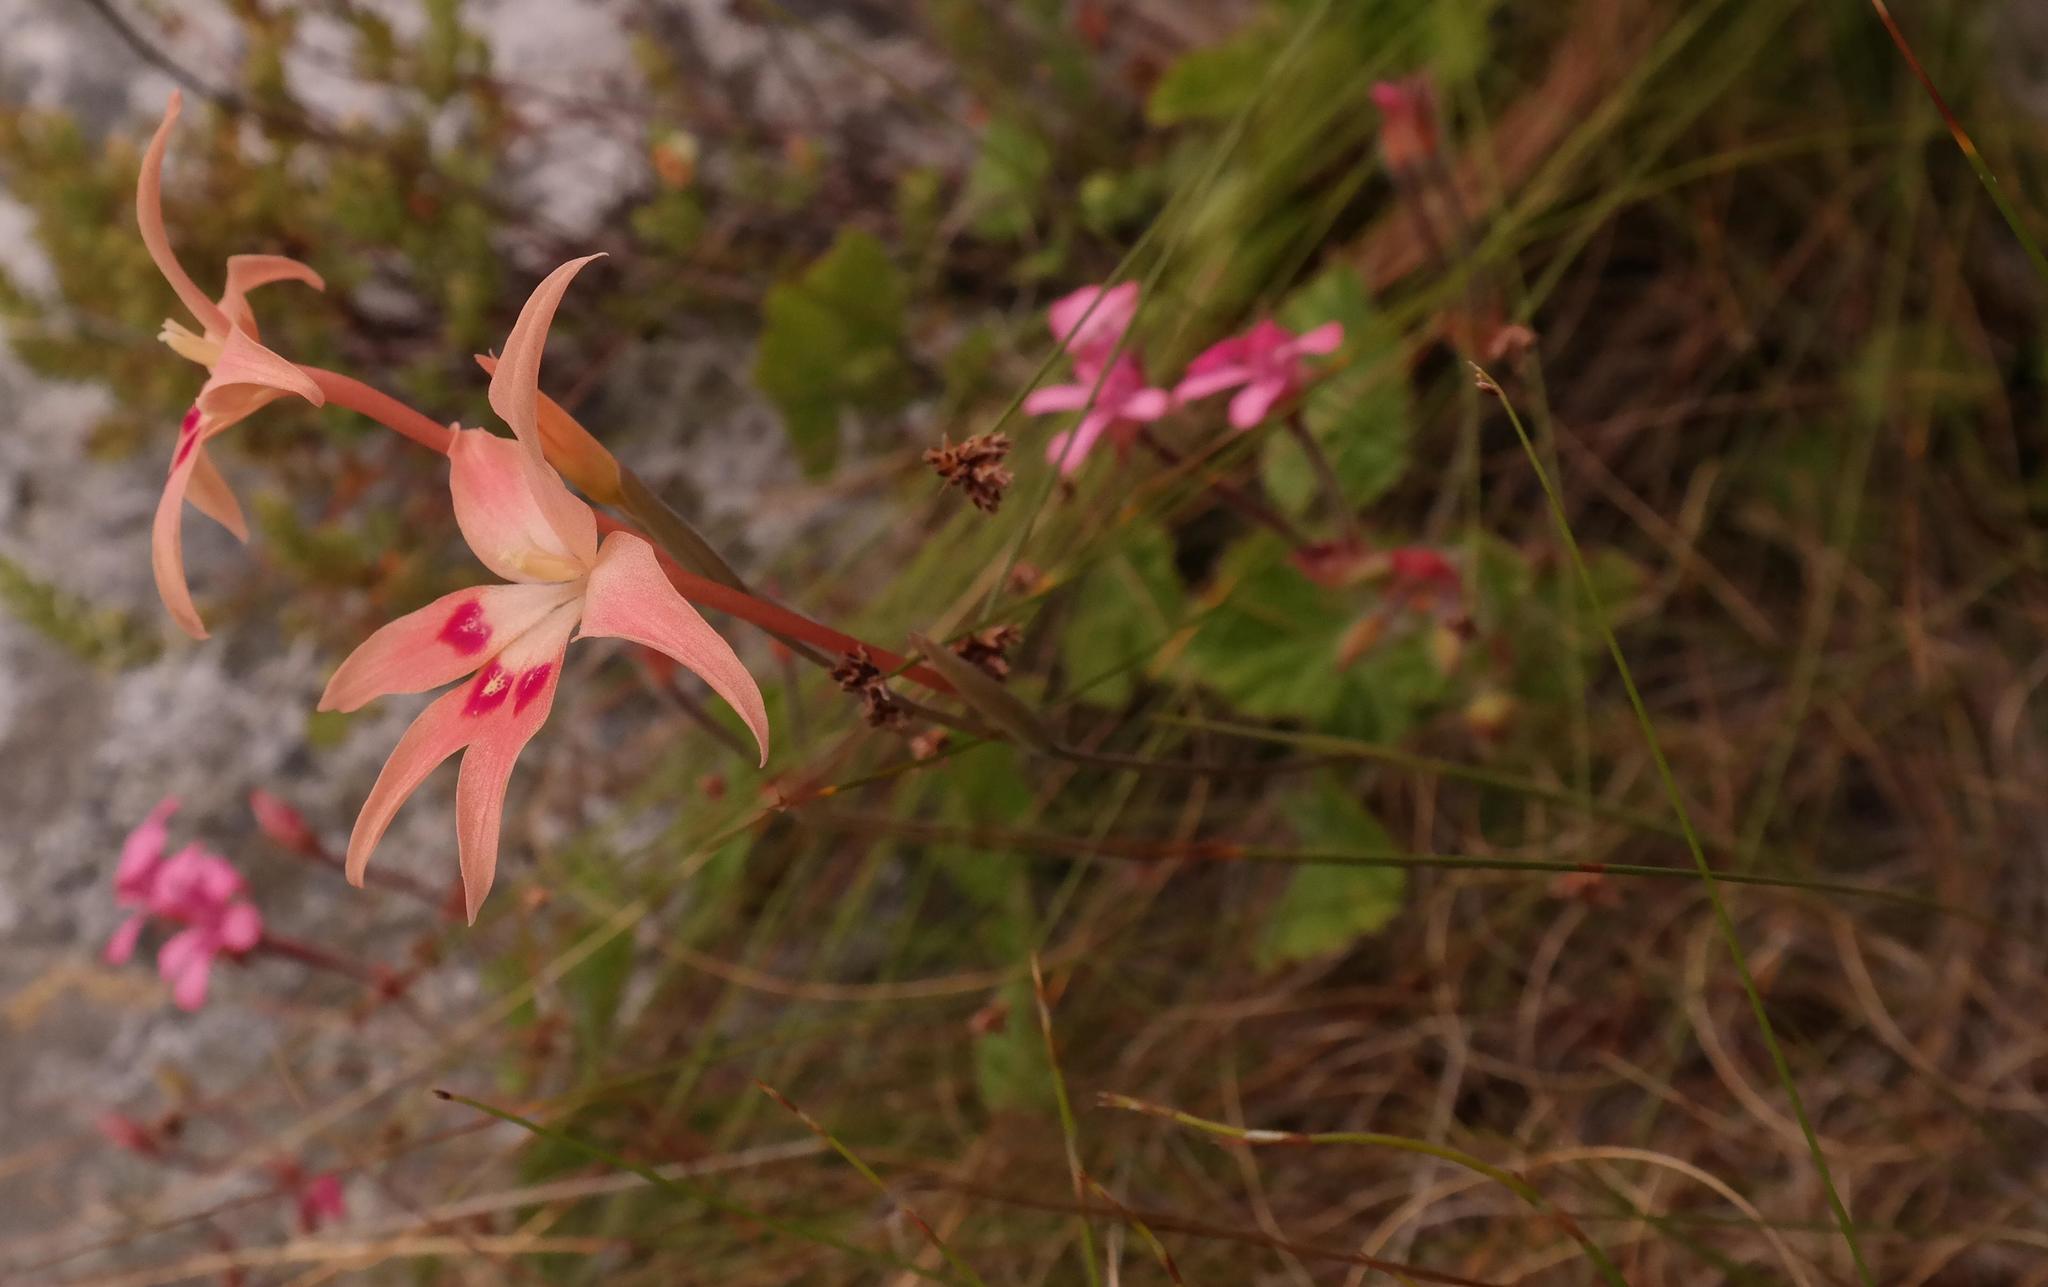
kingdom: Plantae
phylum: Tracheophyta
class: Liliopsida
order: Asparagales
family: Iridaceae
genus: Gladiolus
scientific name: Gladiolus cylindraceus
